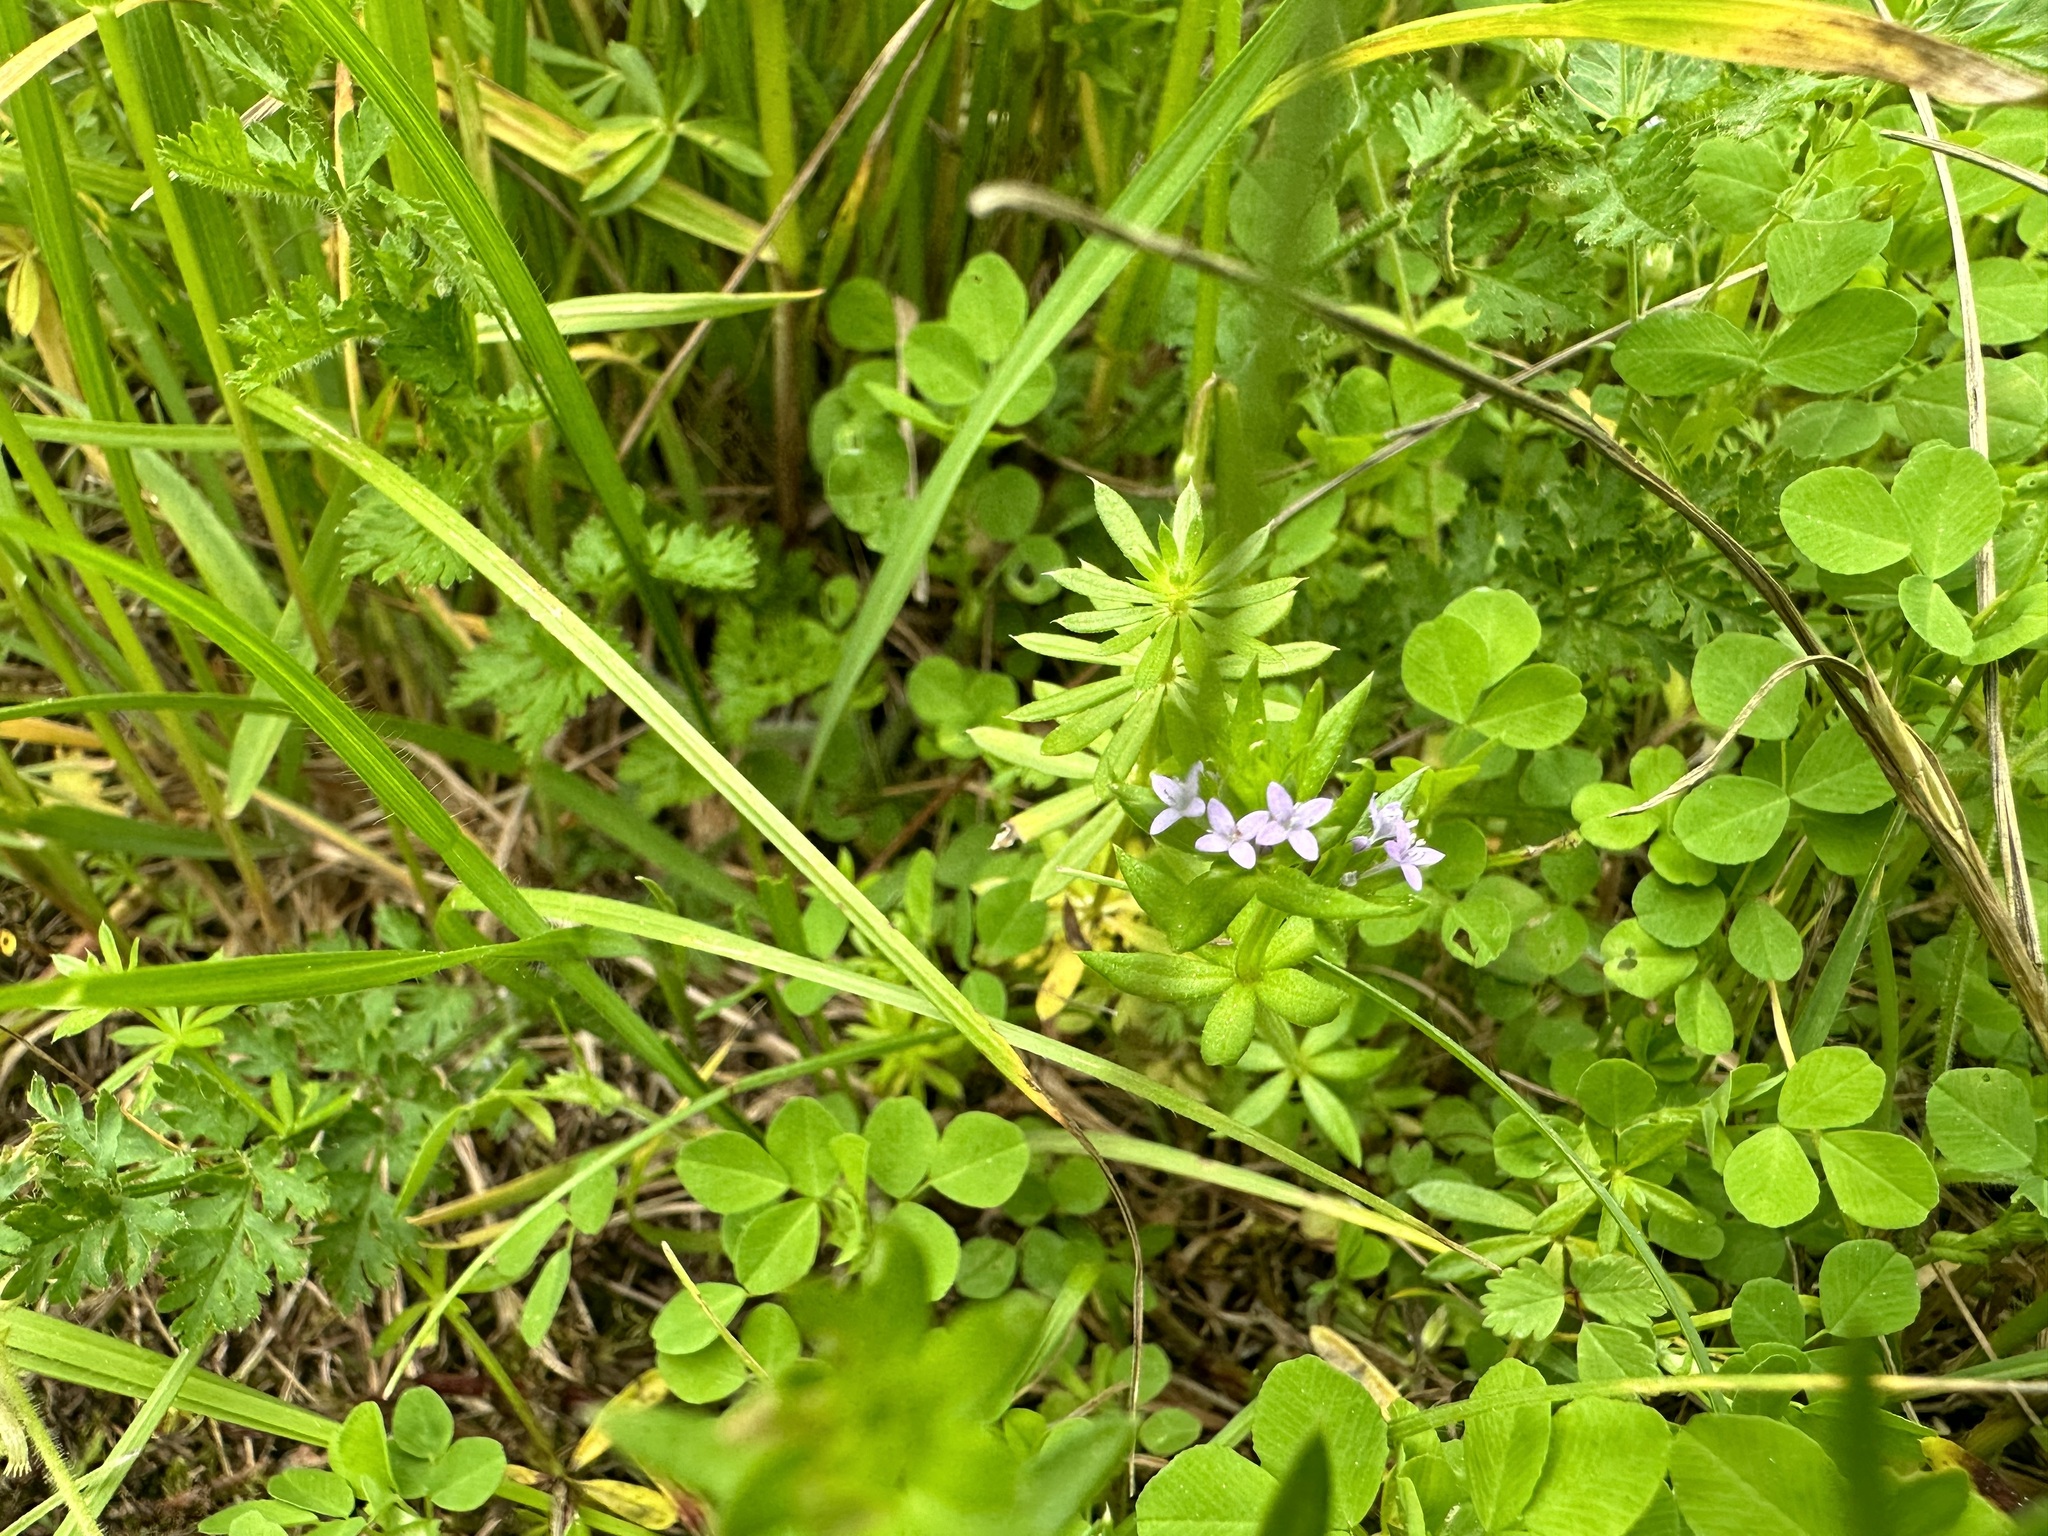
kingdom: Plantae
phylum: Tracheophyta
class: Magnoliopsida
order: Gentianales
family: Rubiaceae
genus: Sherardia
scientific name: Sherardia arvensis
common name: Field madder
